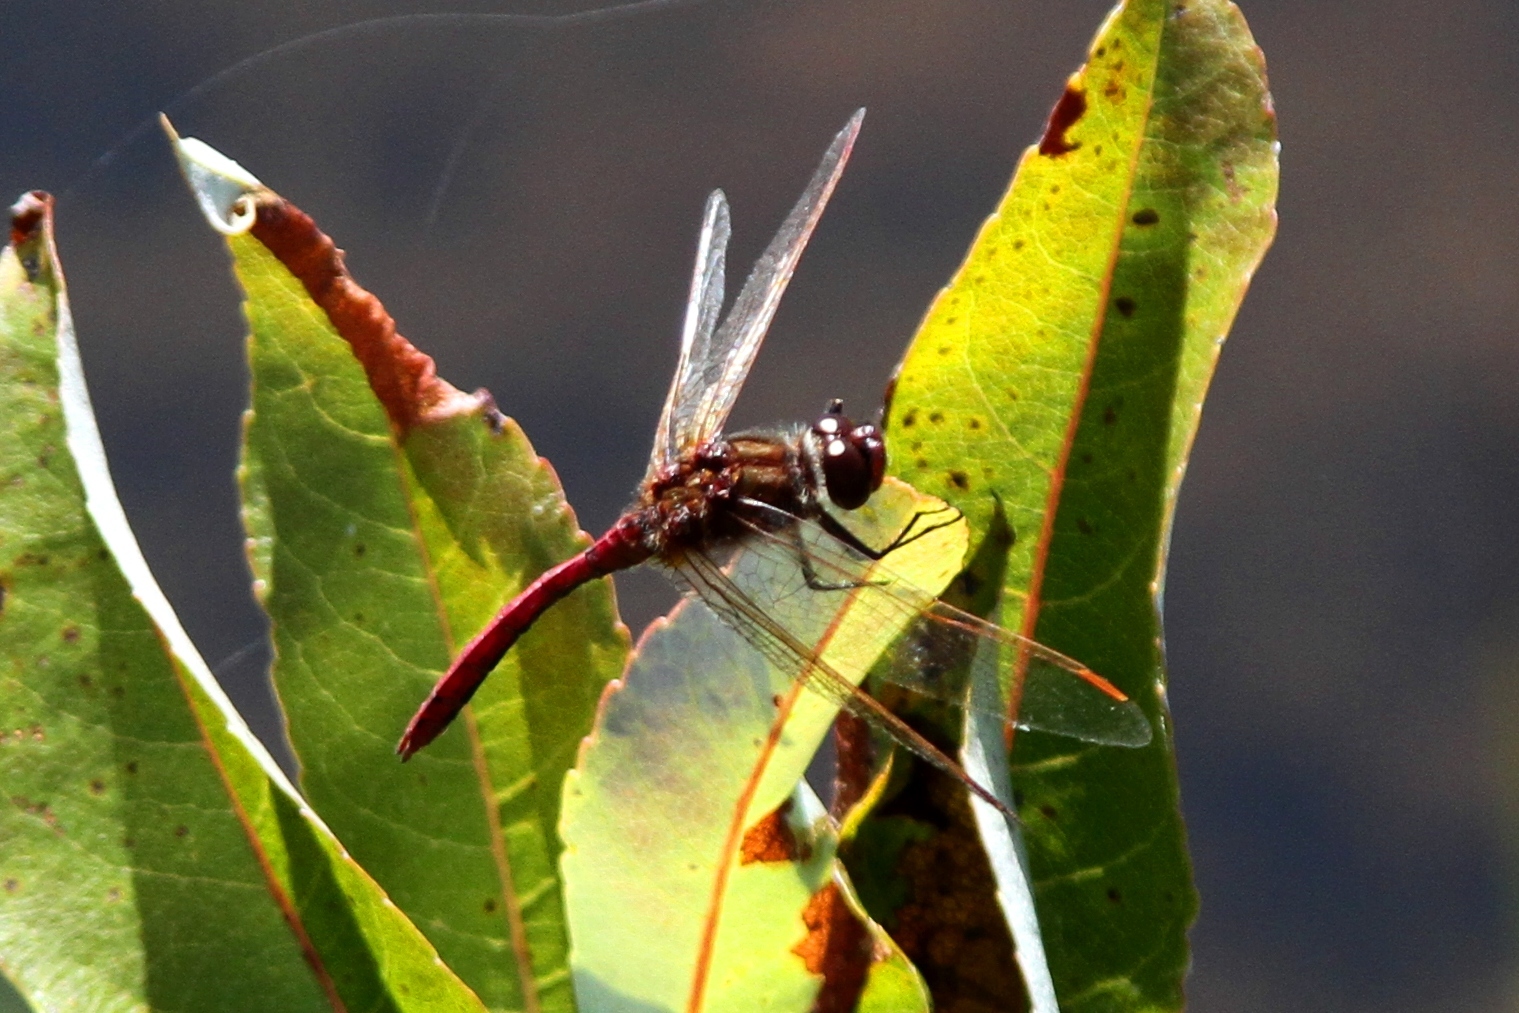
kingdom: Animalia
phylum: Arthropoda
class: Insecta
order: Odonata
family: Libellulidae
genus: Sympetrum
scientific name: Sympetrum costiferum
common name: Saffron-winged meadowhawk
